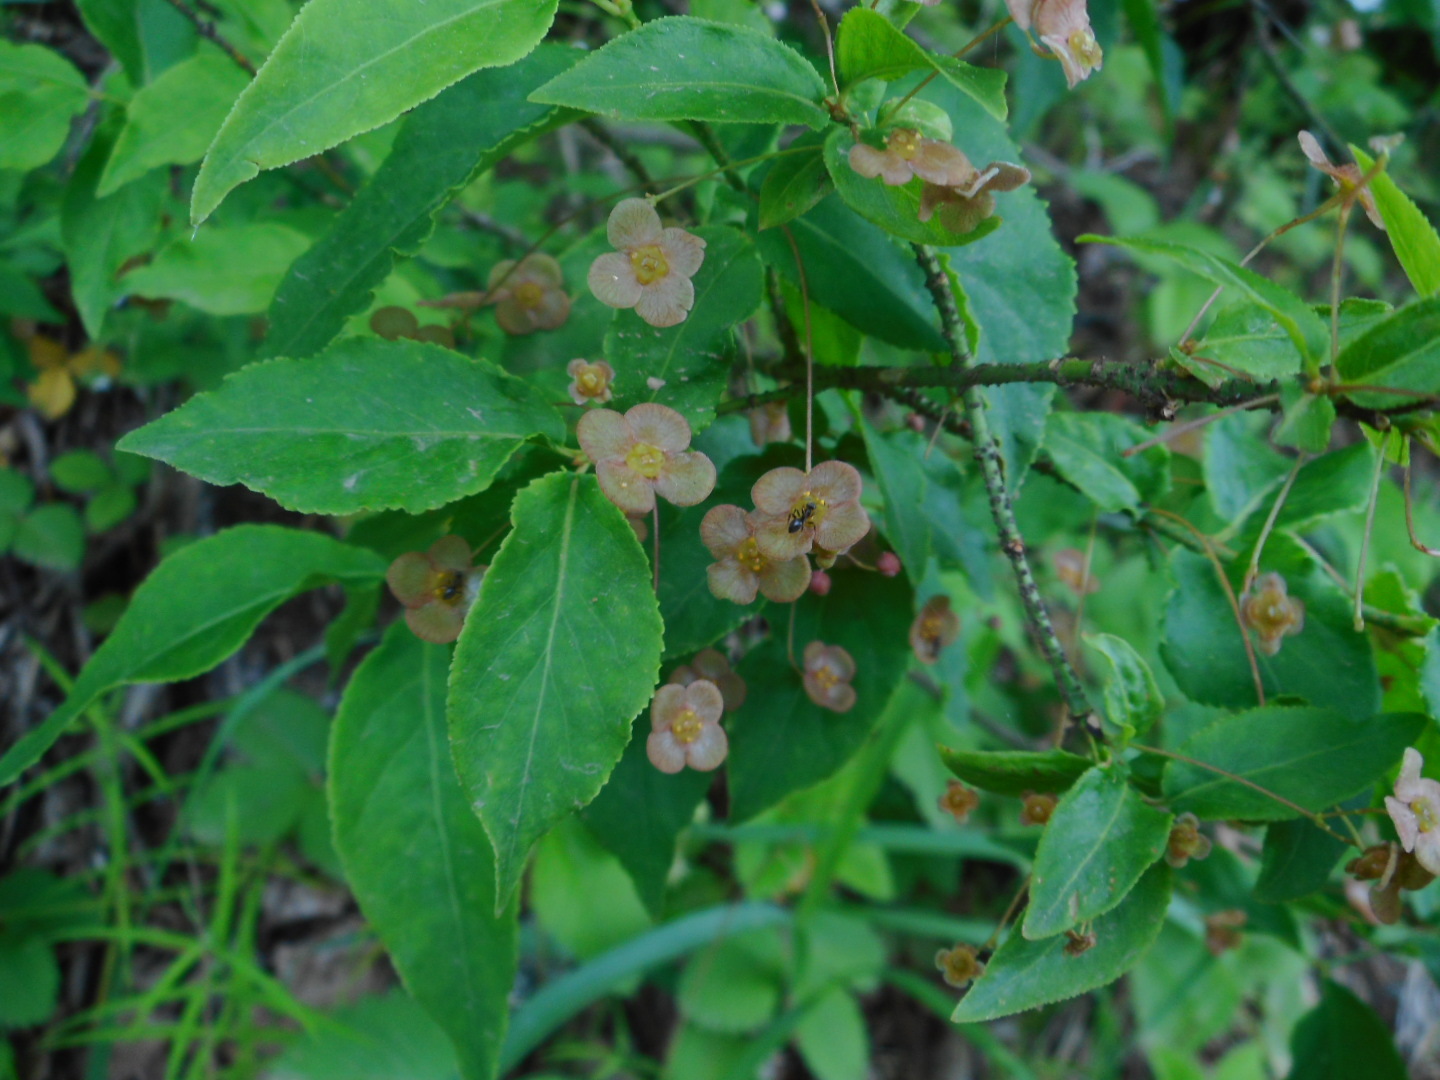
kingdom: Plantae
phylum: Tracheophyta
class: Magnoliopsida
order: Celastrales
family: Celastraceae
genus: Euonymus
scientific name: Euonymus verrucosus
